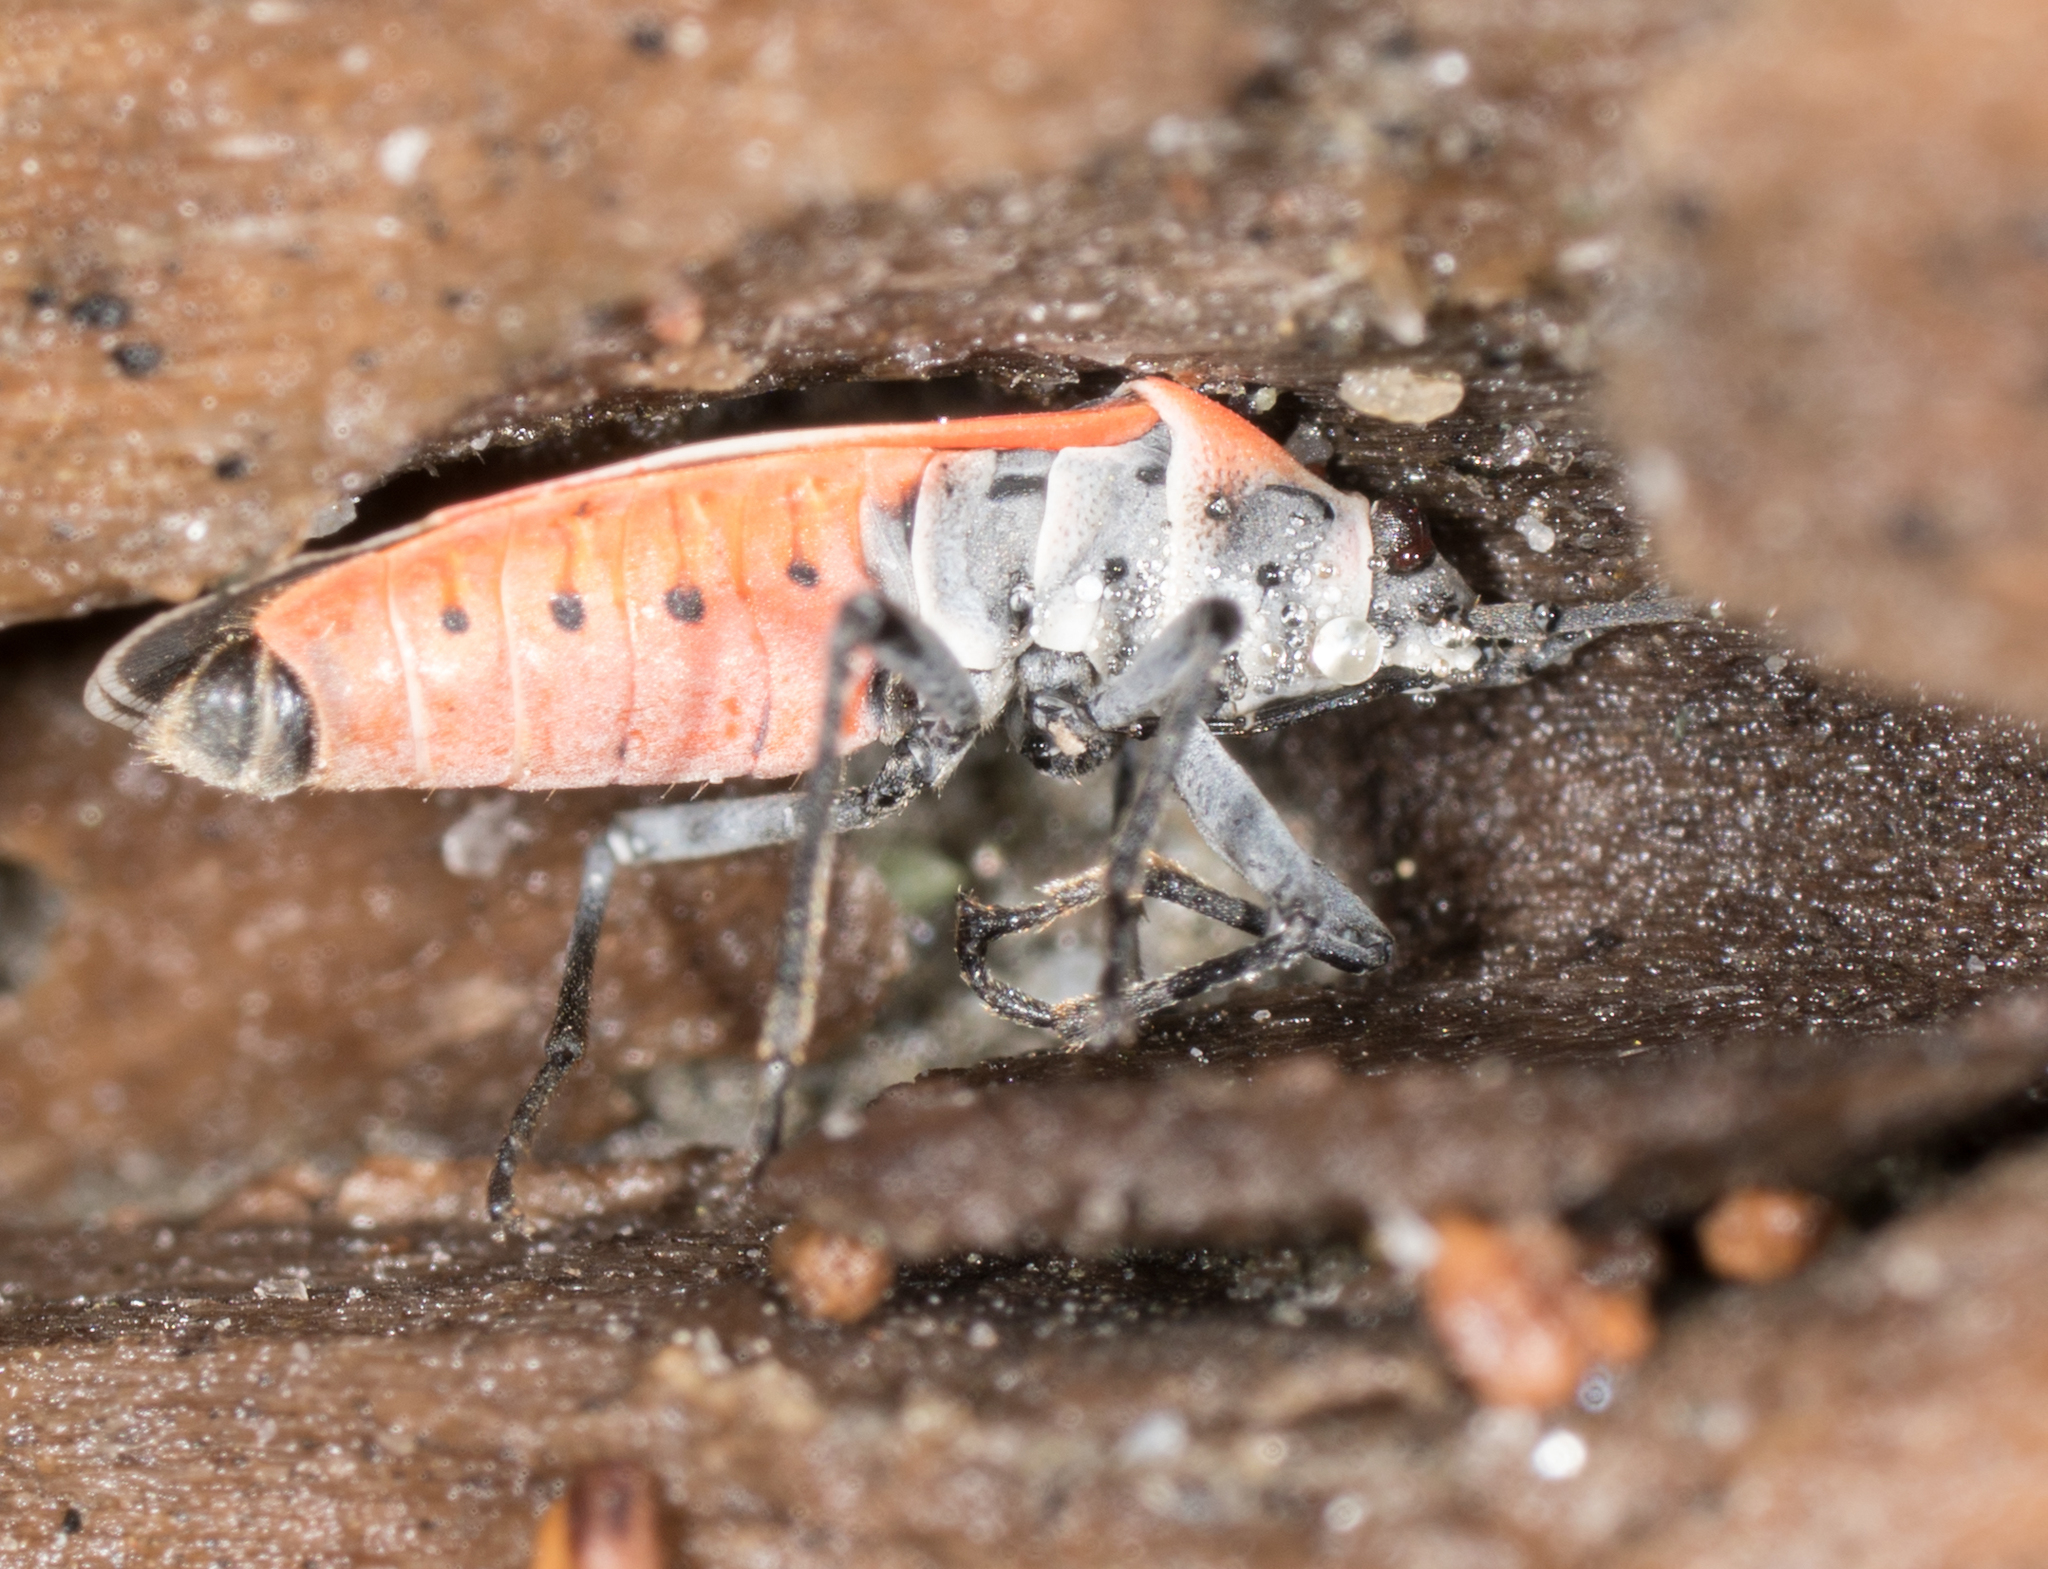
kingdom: Animalia
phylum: Arthropoda
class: Insecta
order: Hemiptera
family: Lygaeidae
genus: Neacoryphus
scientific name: Neacoryphus bicrucis
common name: Lygaeid bug
